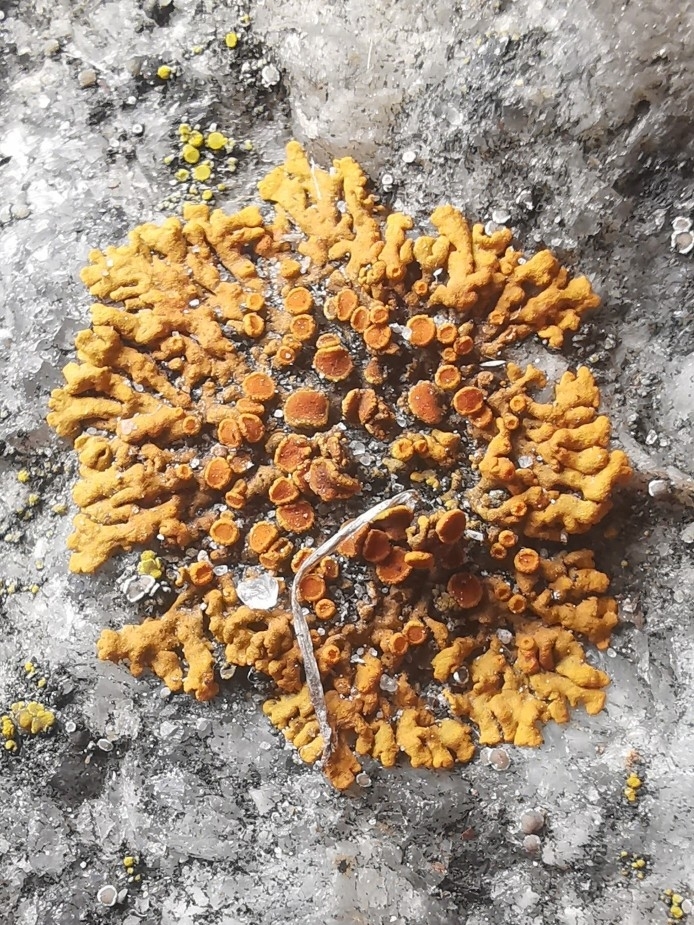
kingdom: Fungi
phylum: Ascomycota
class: Lecanoromycetes
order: Teloschistales
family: Teloschistaceae
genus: Xanthoria
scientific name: Xanthoria elegans
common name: Elegant sunburst lichen
